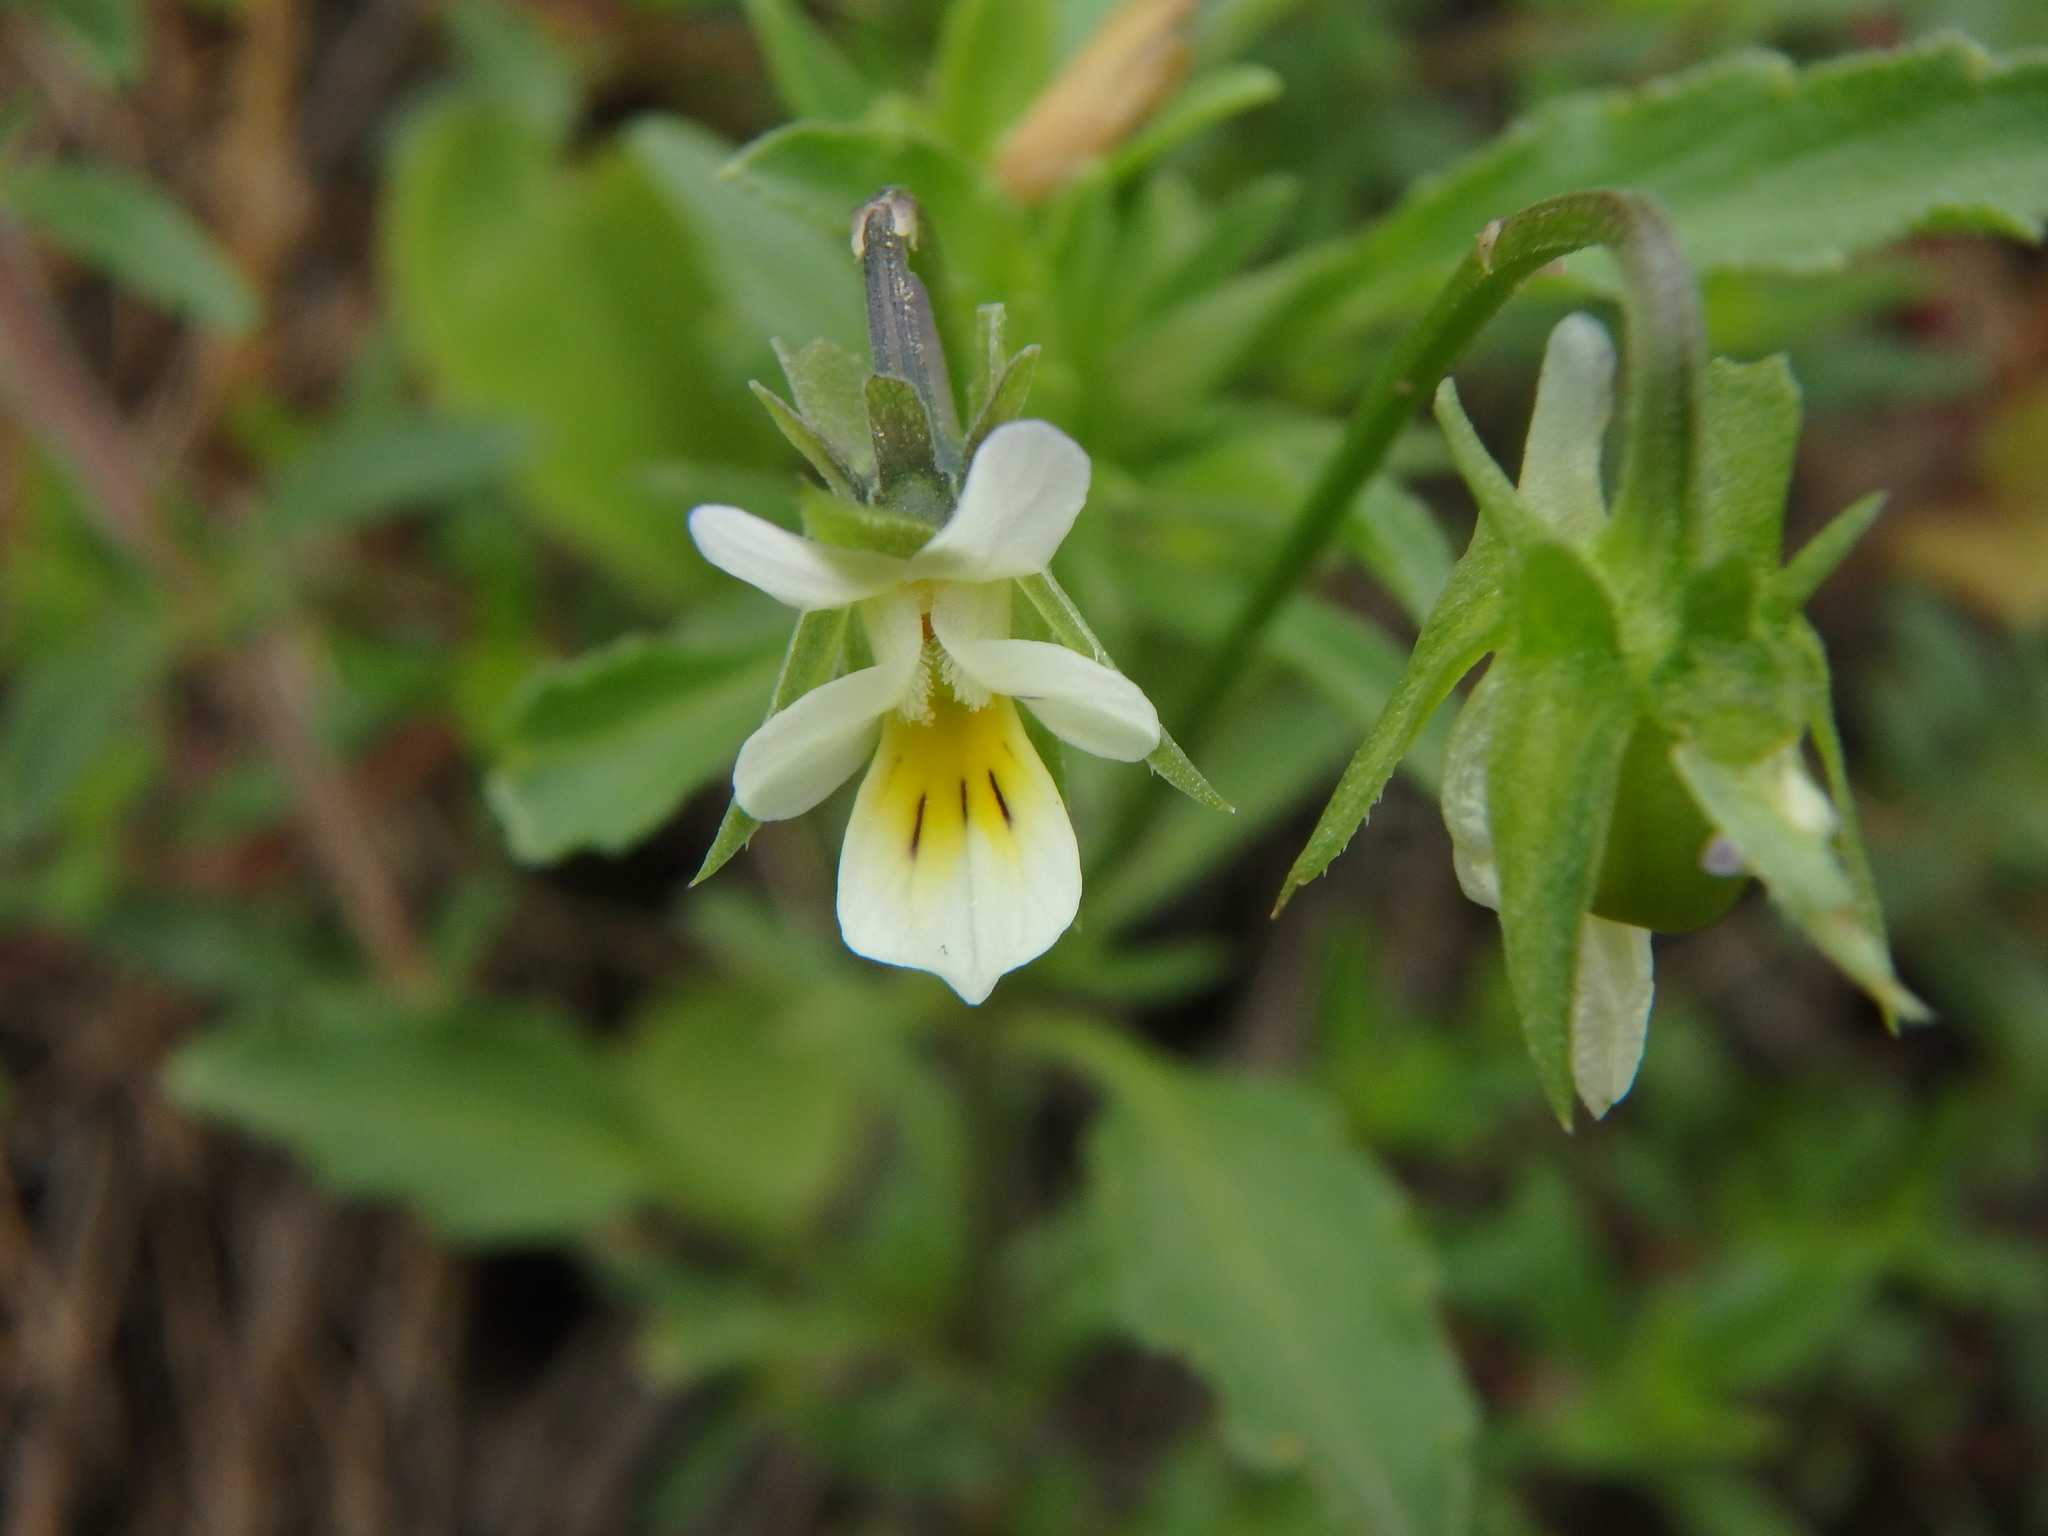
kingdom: Plantae
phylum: Tracheophyta
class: Magnoliopsida
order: Malpighiales
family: Violaceae
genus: Viola
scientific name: Viola arvensis
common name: Field pansy
